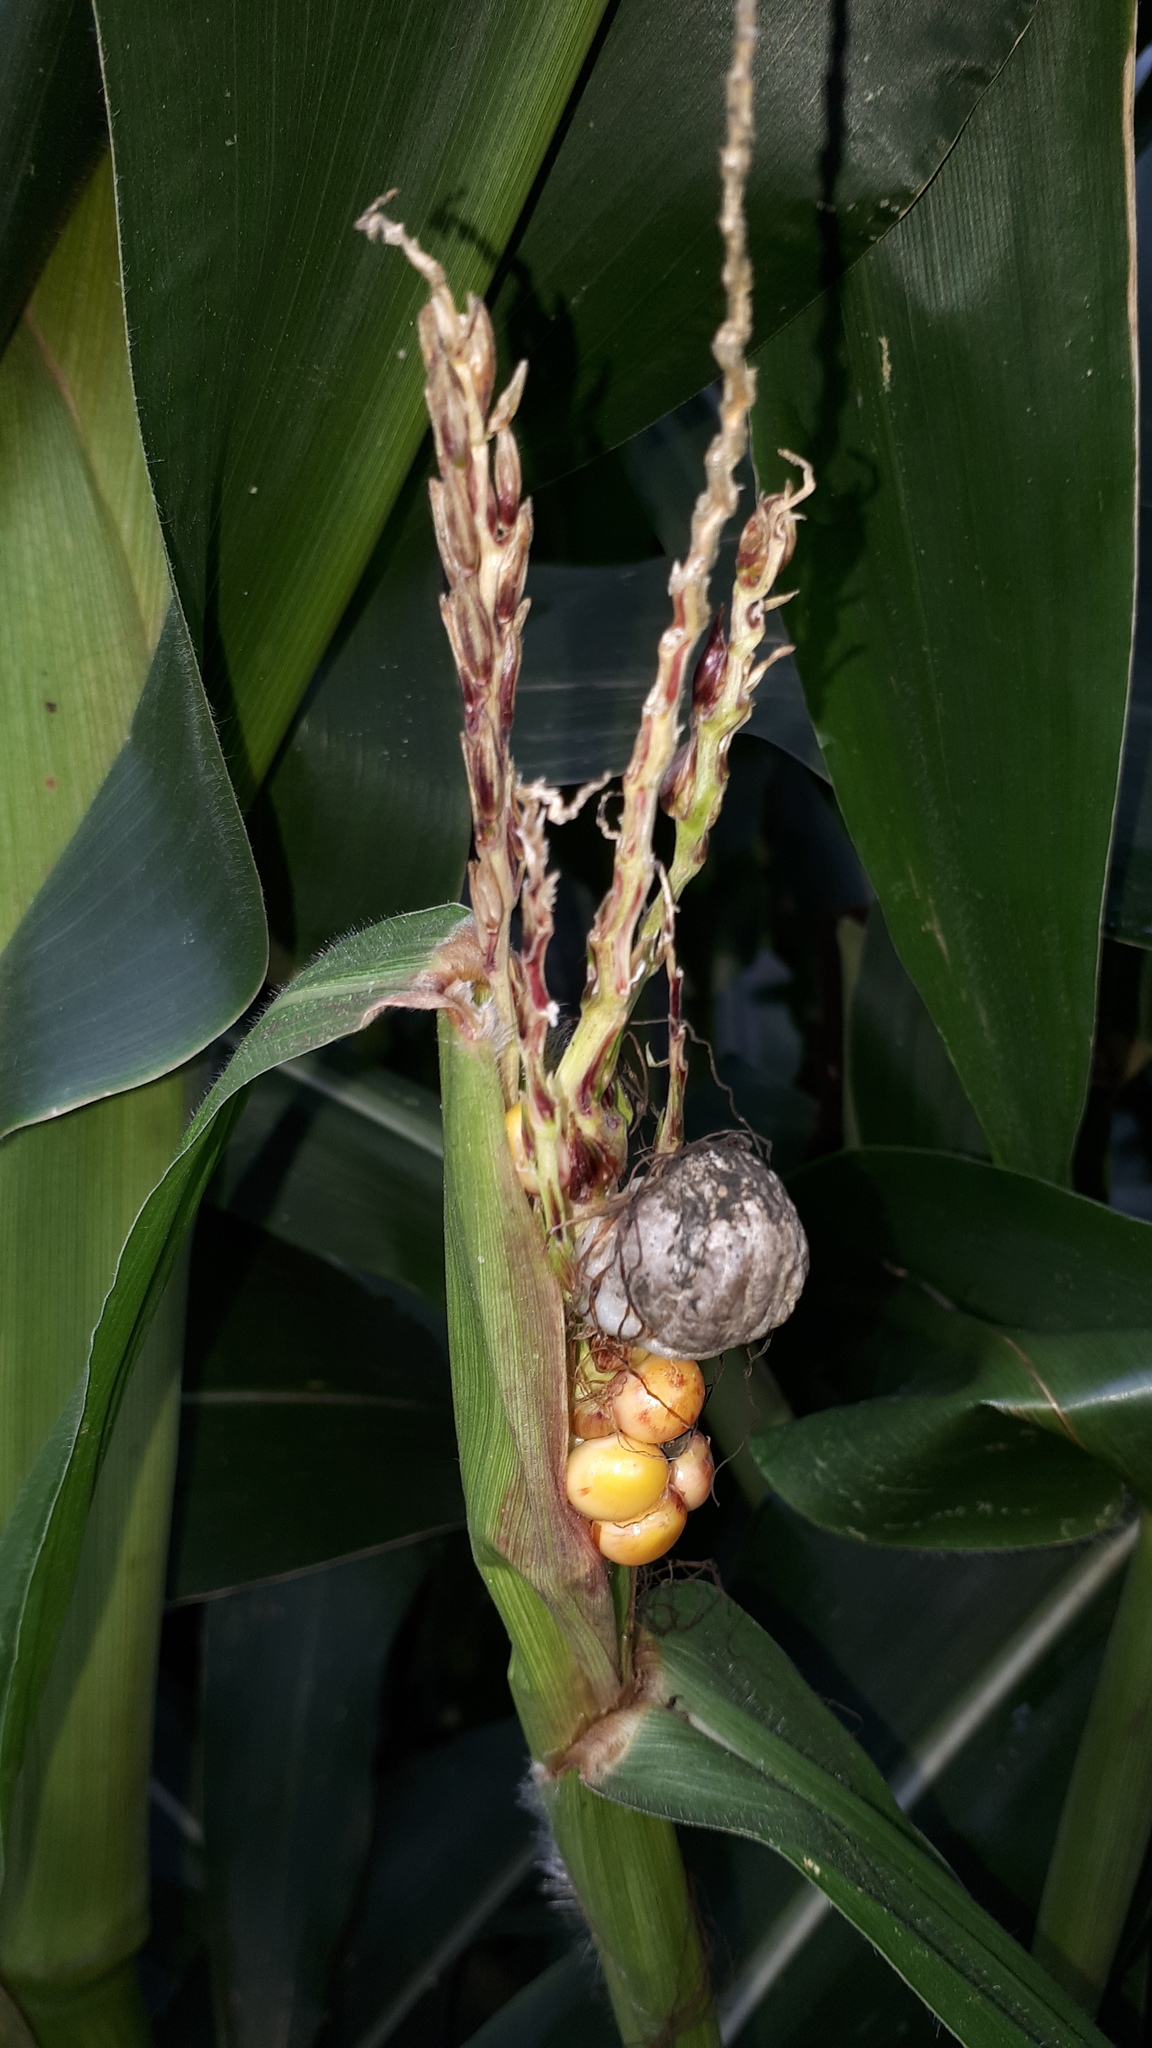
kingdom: Fungi
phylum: Basidiomycota
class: Ustilaginomycetes
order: Ustilaginales
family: Ustilaginaceae
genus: Mycosarcoma
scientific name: Mycosarcoma maydis
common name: Corn smut
